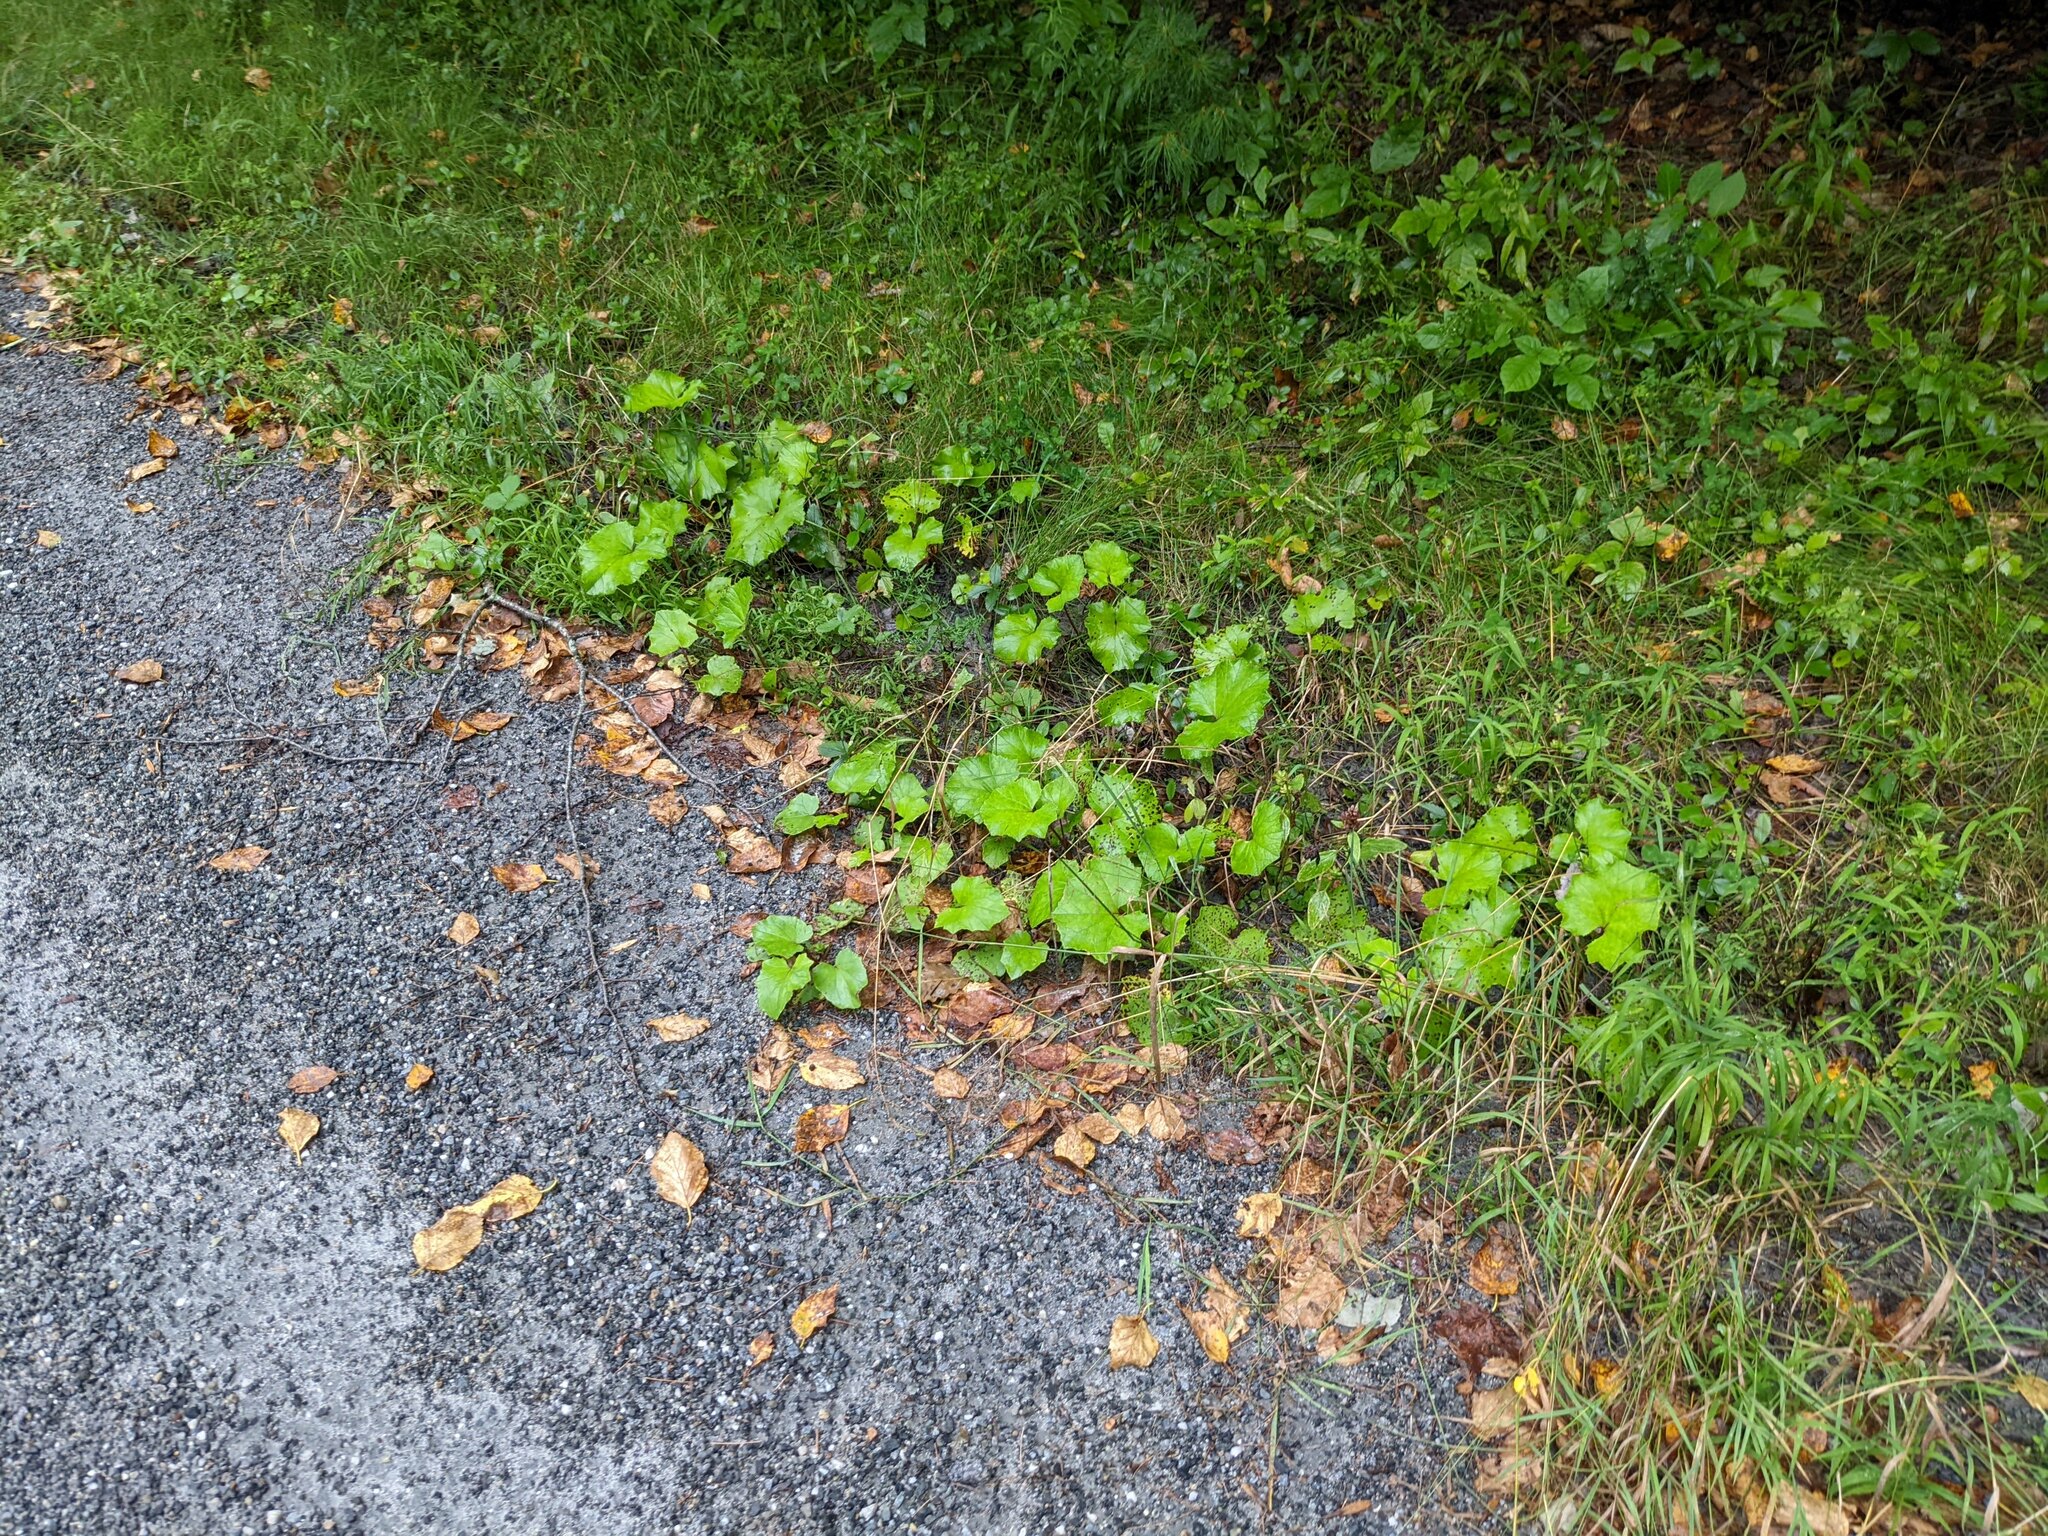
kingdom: Plantae
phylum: Tracheophyta
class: Magnoliopsida
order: Asterales
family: Asteraceae
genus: Tussilago
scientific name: Tussilago farfara
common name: Coltsfoot
